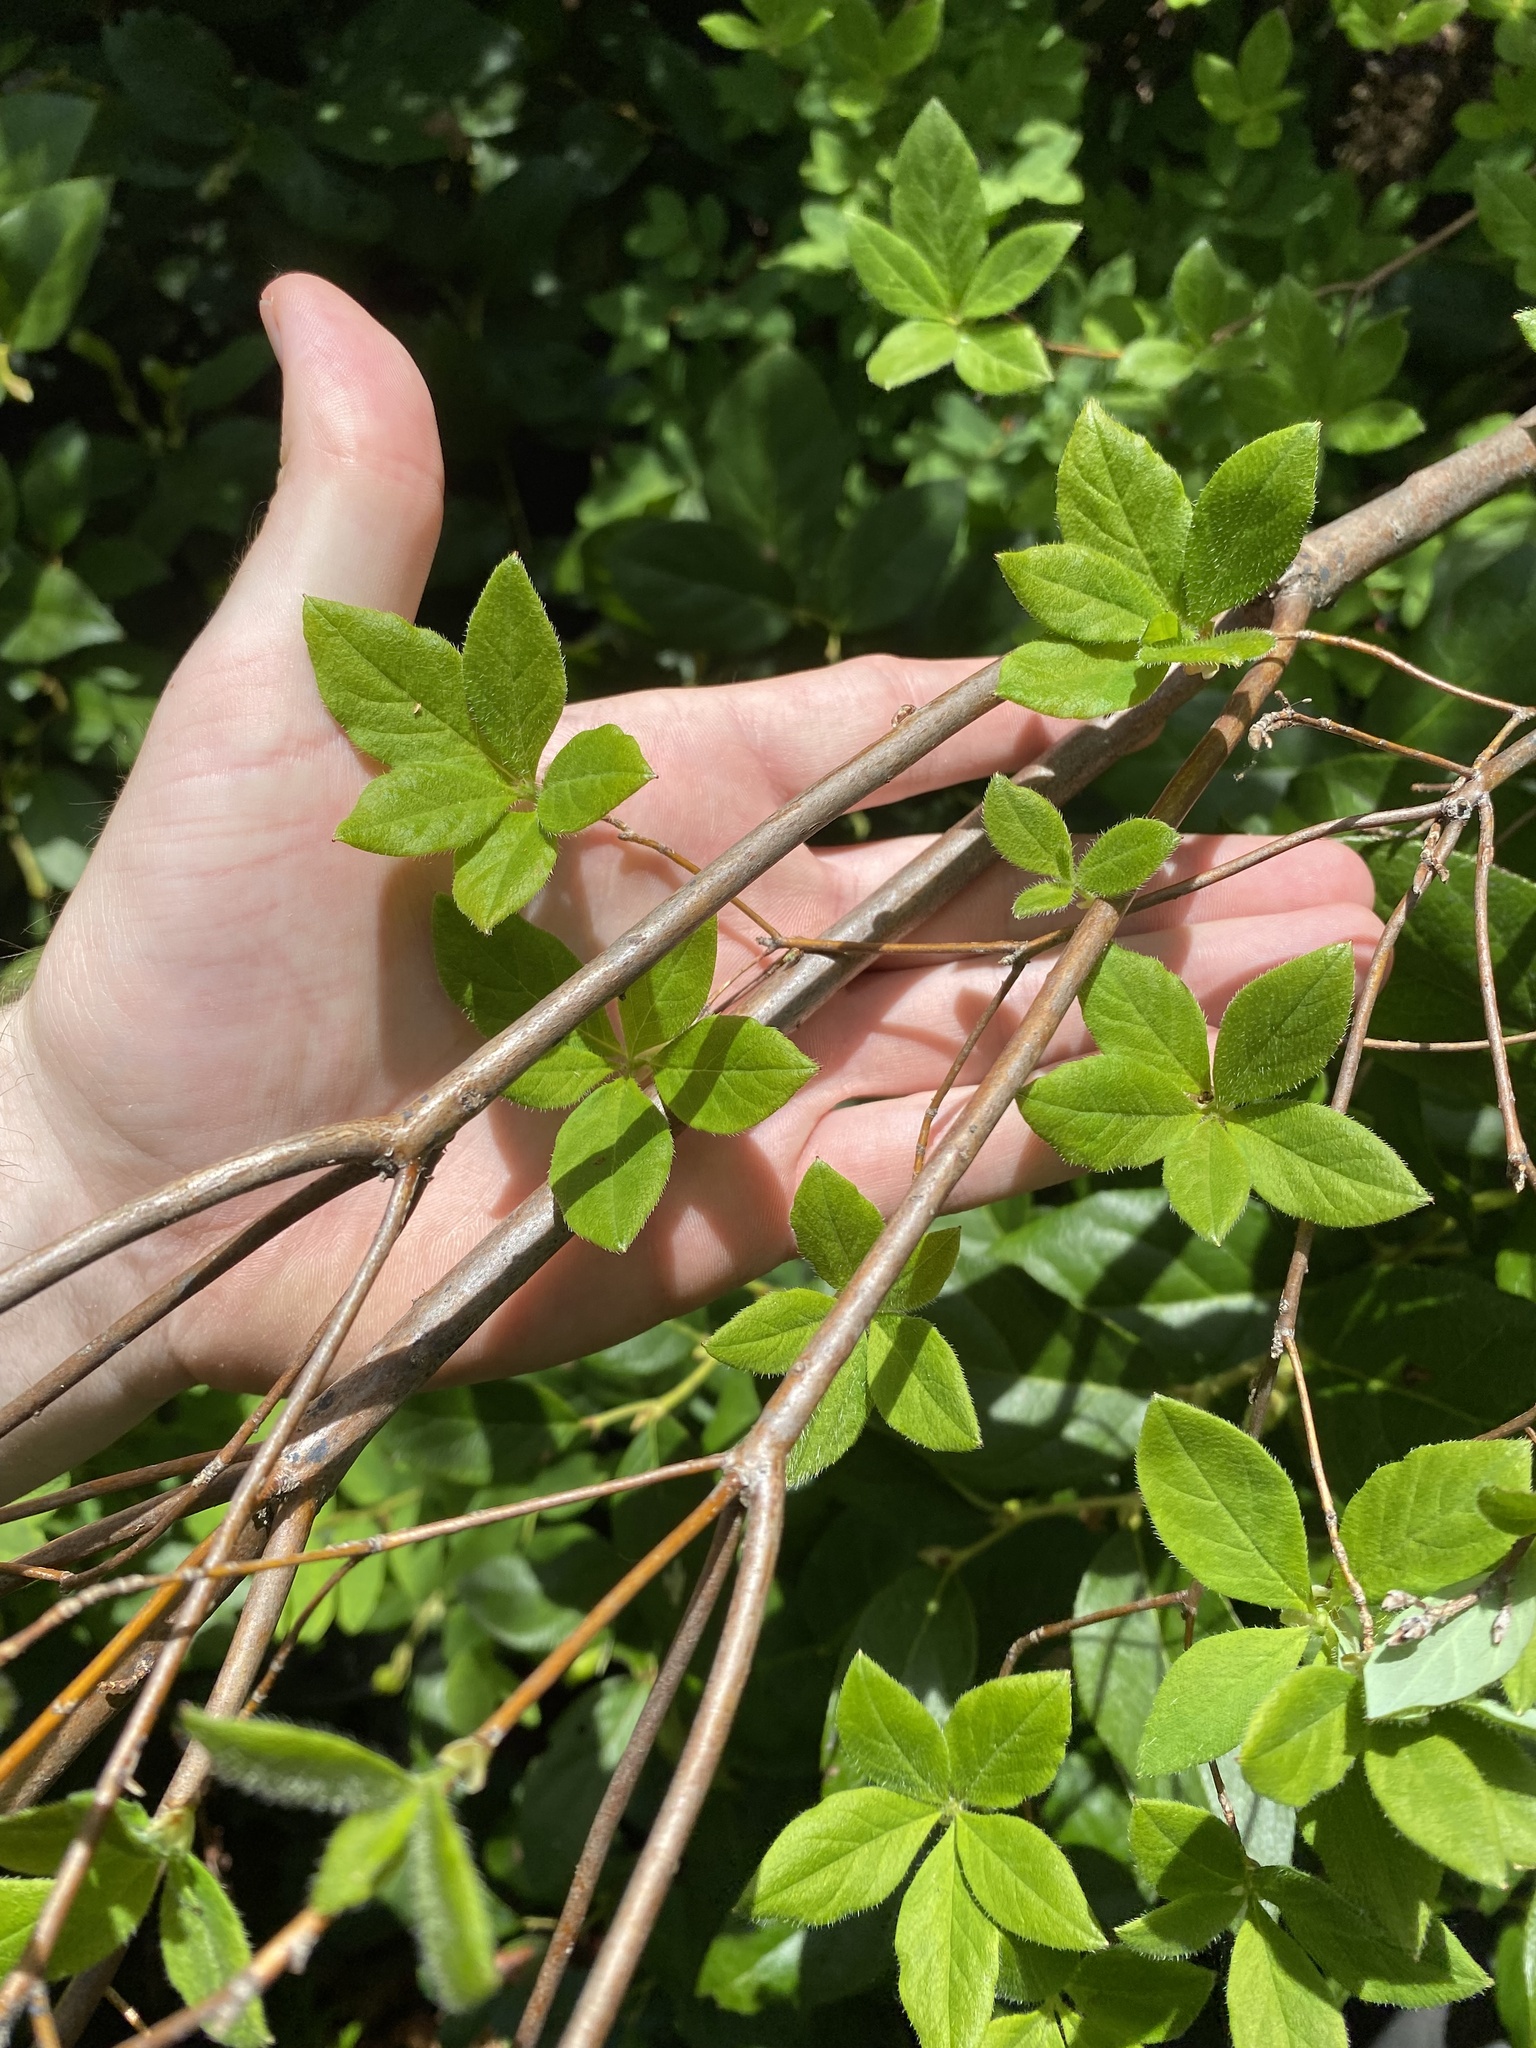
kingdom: Plantae
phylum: Tracheophyta
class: Magnoliopsida
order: Ericales
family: Ericaceae
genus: Rhododendron
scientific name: Rhododendron menziesii
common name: Pacific menziesia
